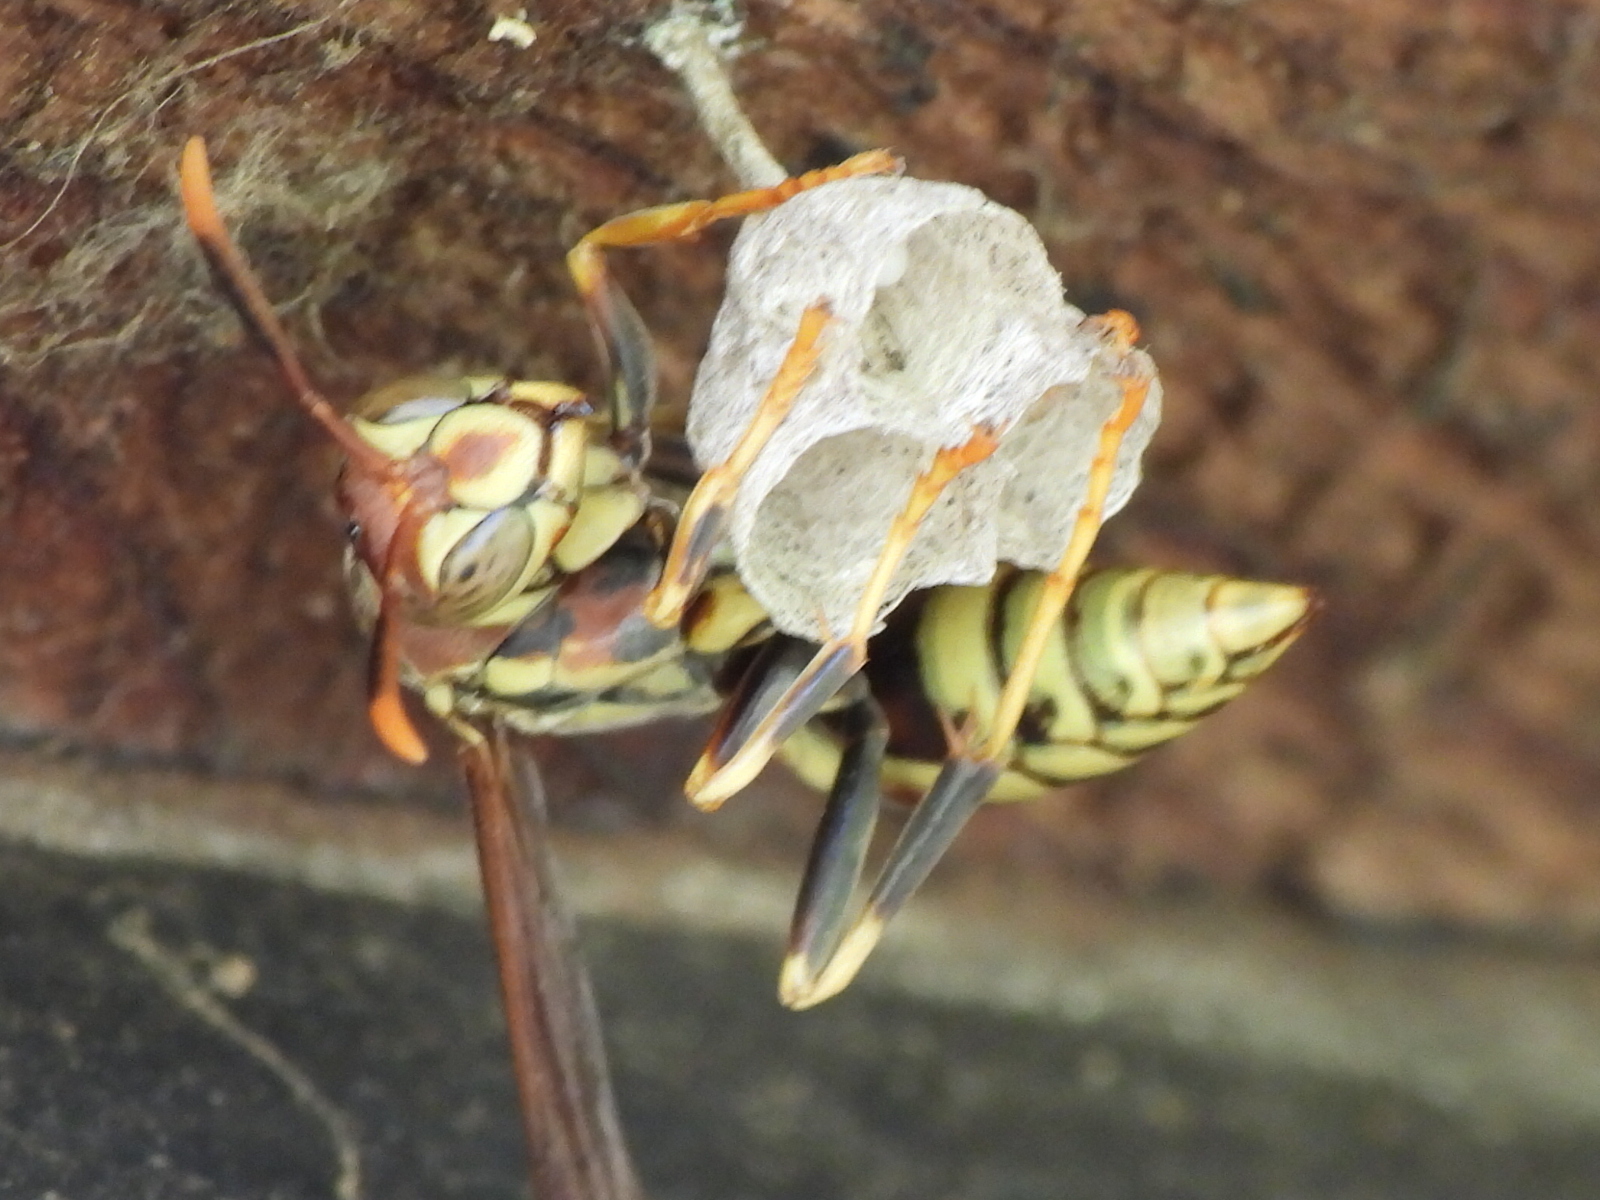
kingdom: Animalia
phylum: Arthropoda
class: Insecta
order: Hymenoptera
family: Eumenidae
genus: Polistes
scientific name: Polistes exclamans
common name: Paper wasp
